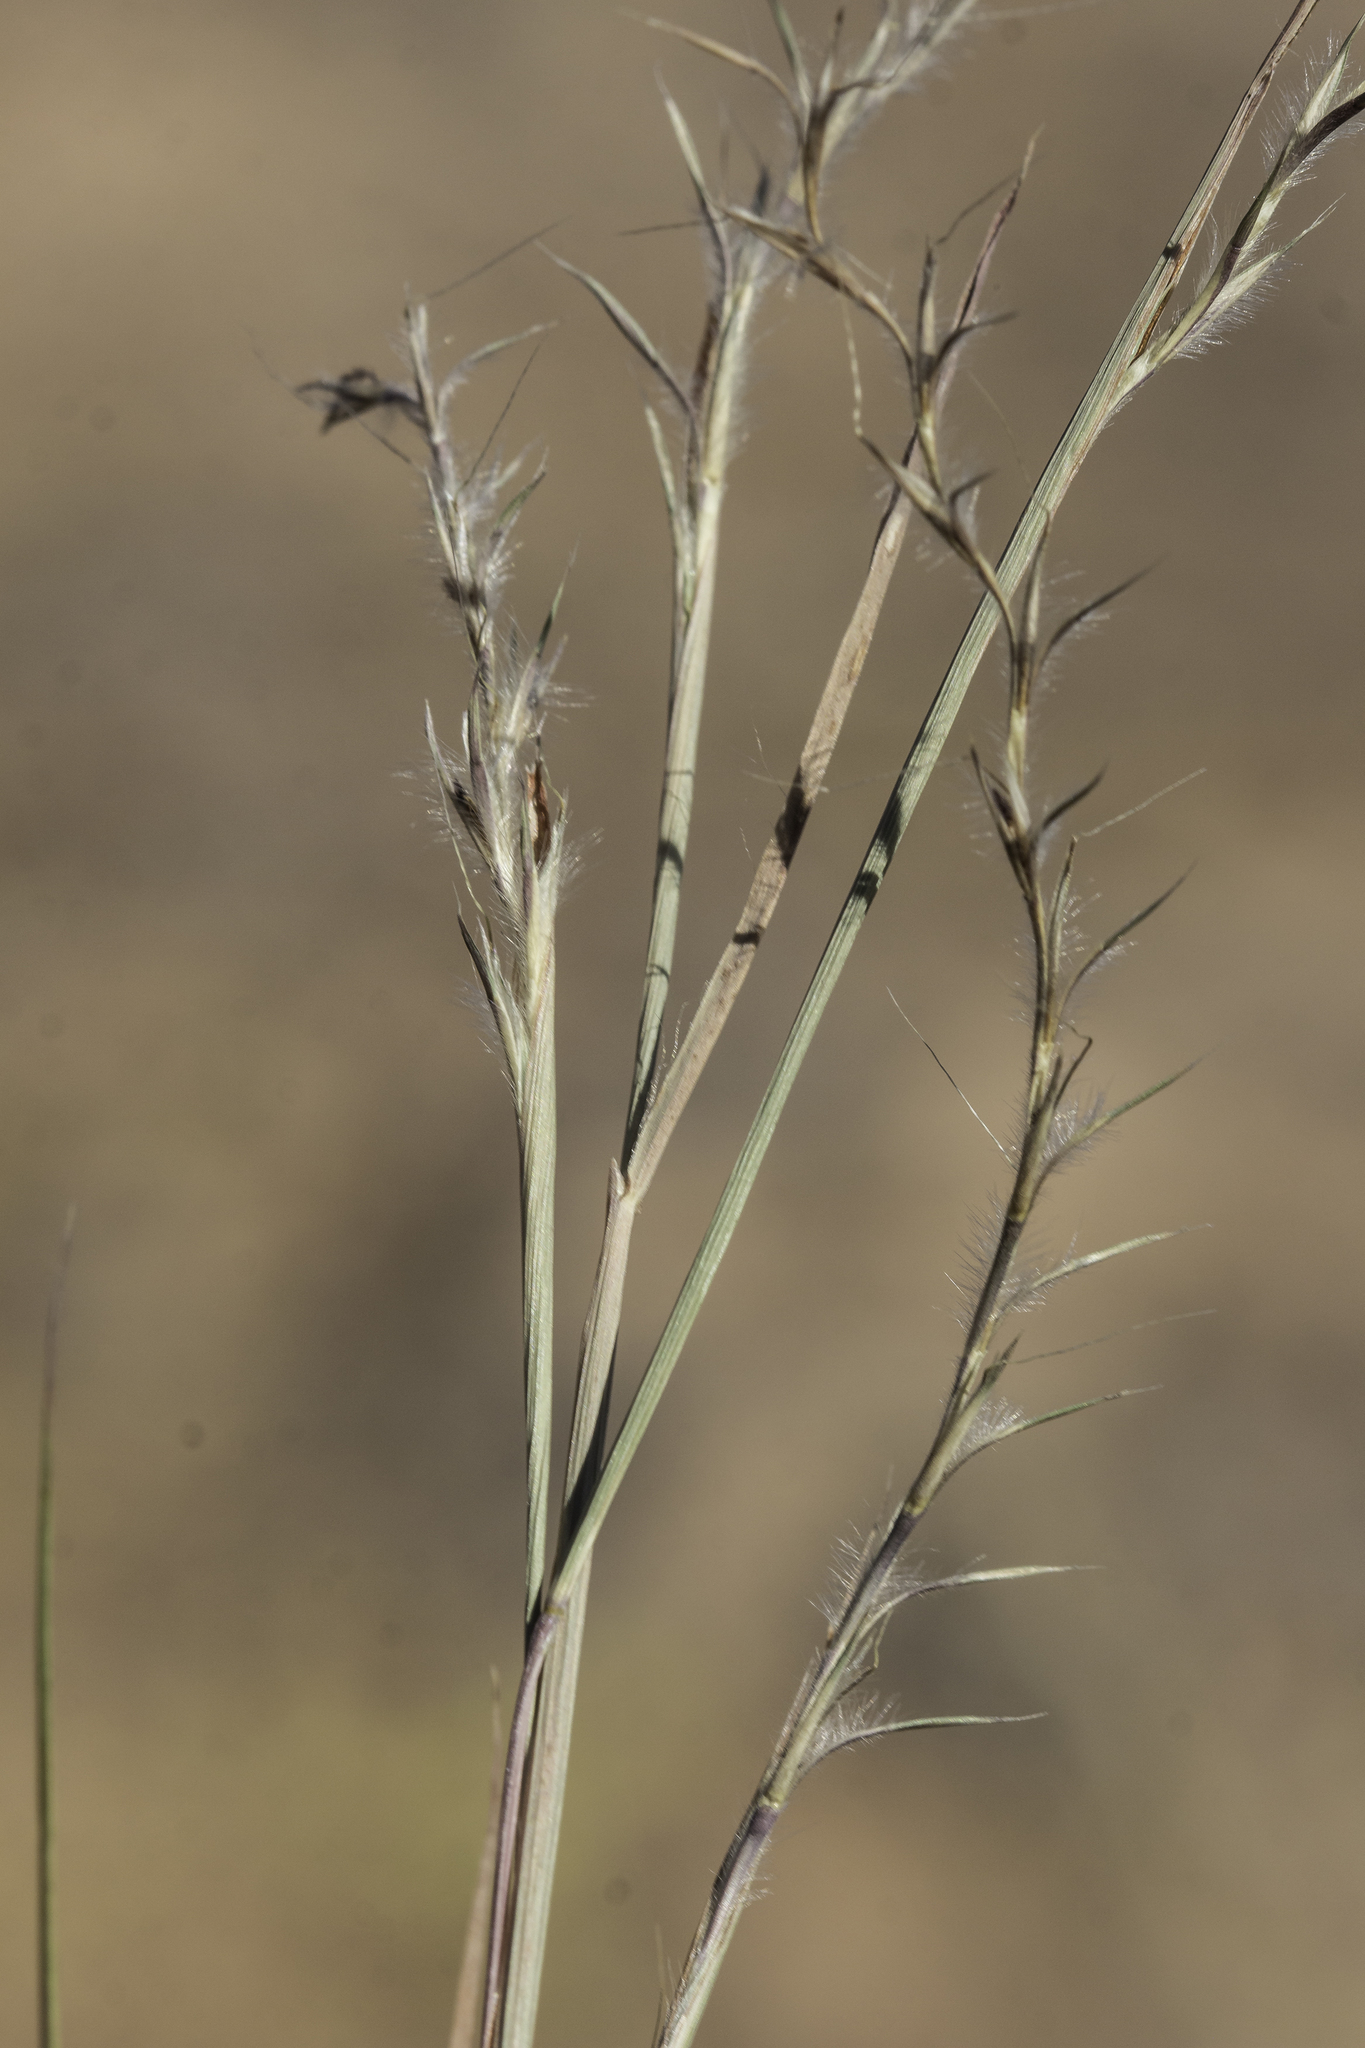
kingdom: Plantae
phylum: Tracheophyta
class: Liliopsida
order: Poales
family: Poaceae
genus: Schizachyrium
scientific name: Schizachyrium scoparium
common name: Little bluestem
